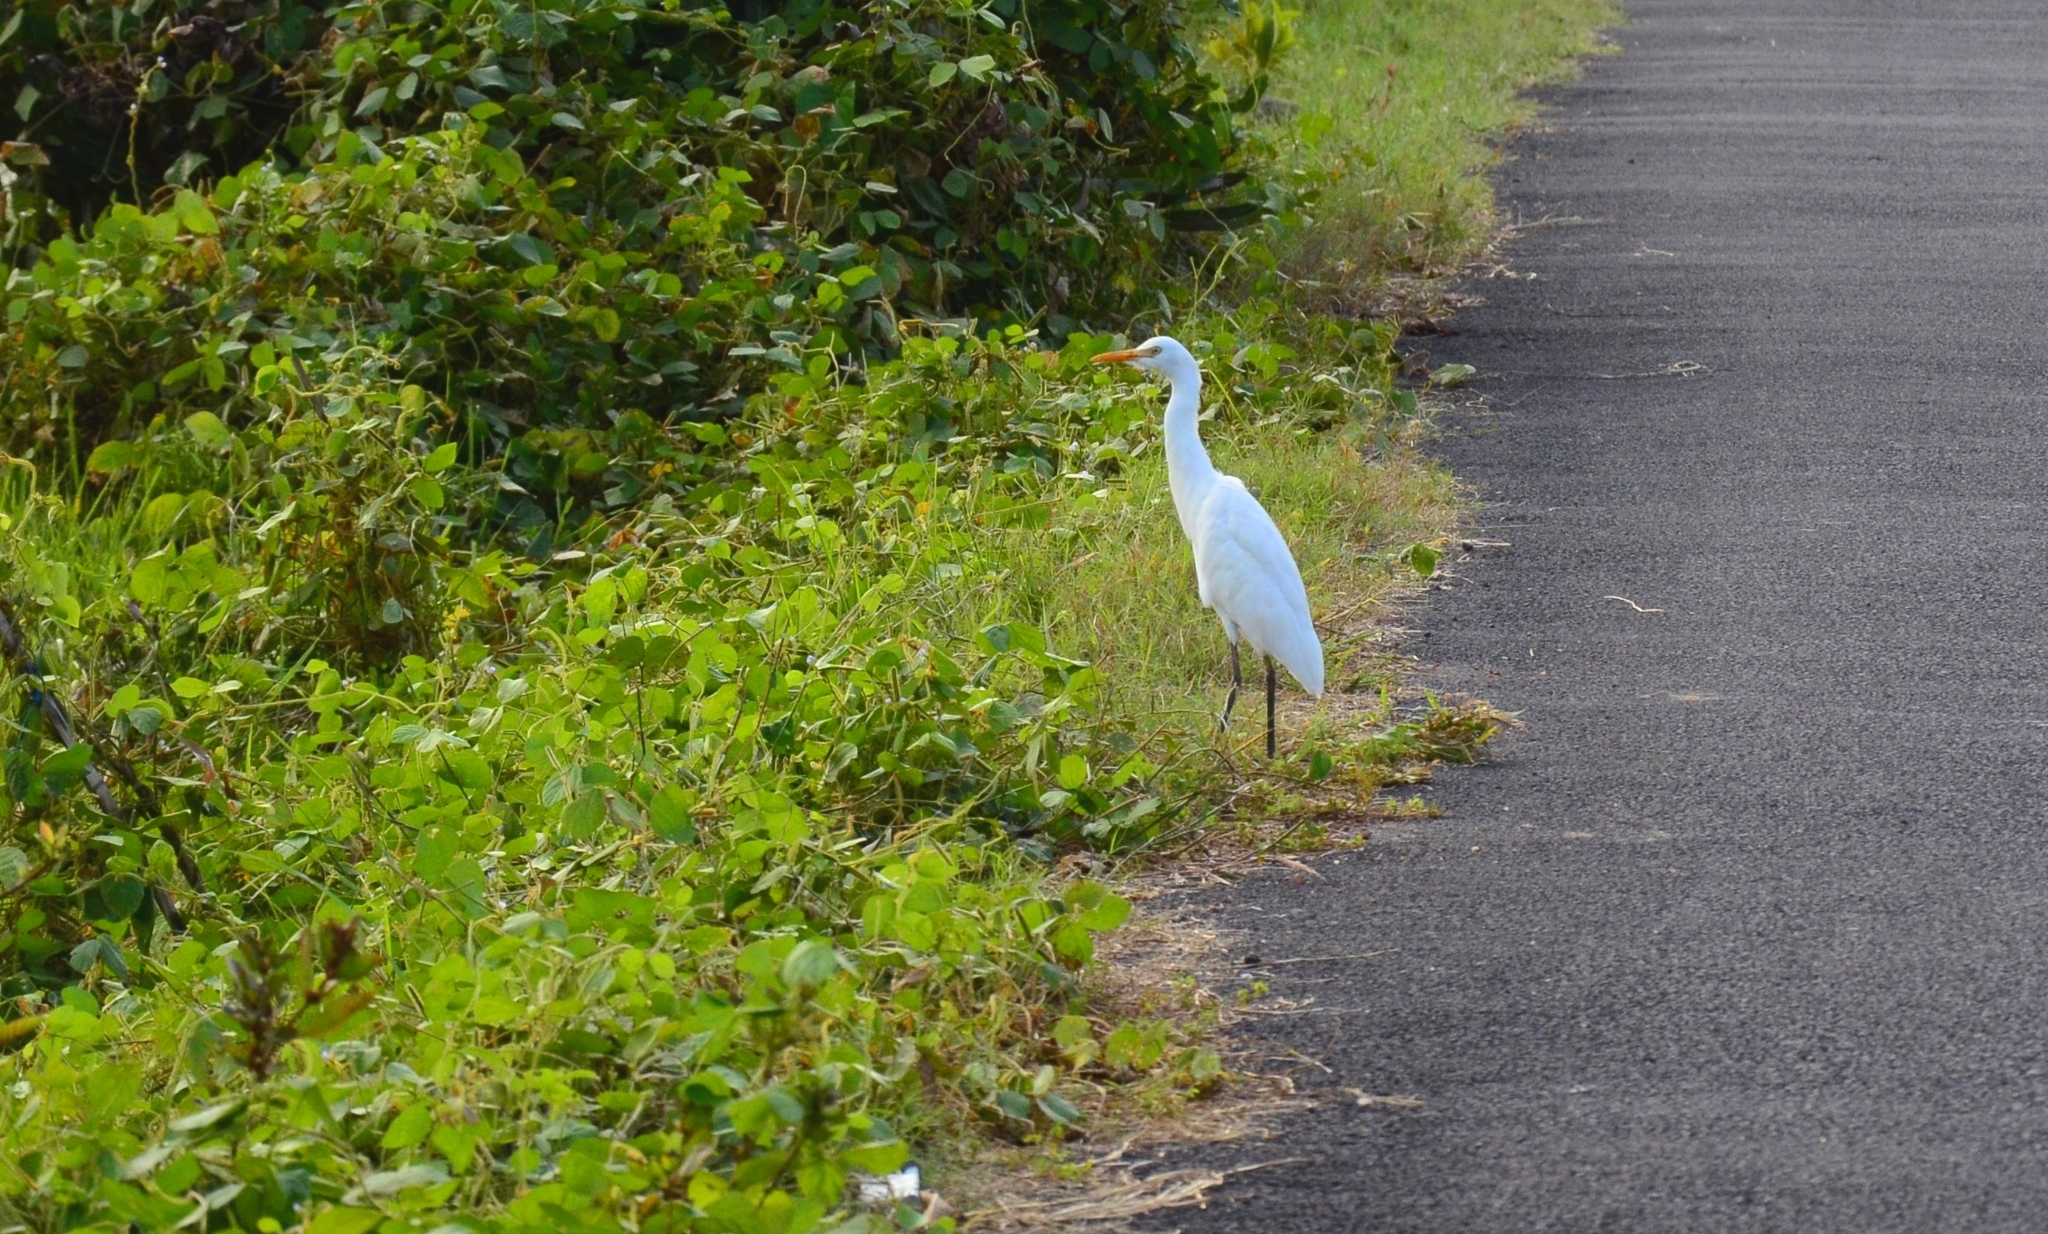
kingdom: Animalia
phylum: Chordata
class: Aves
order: Pelecaniformes
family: Ardeidae
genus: Bubulcus
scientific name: Bubulcus coromandus
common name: Eastern cattle egret
